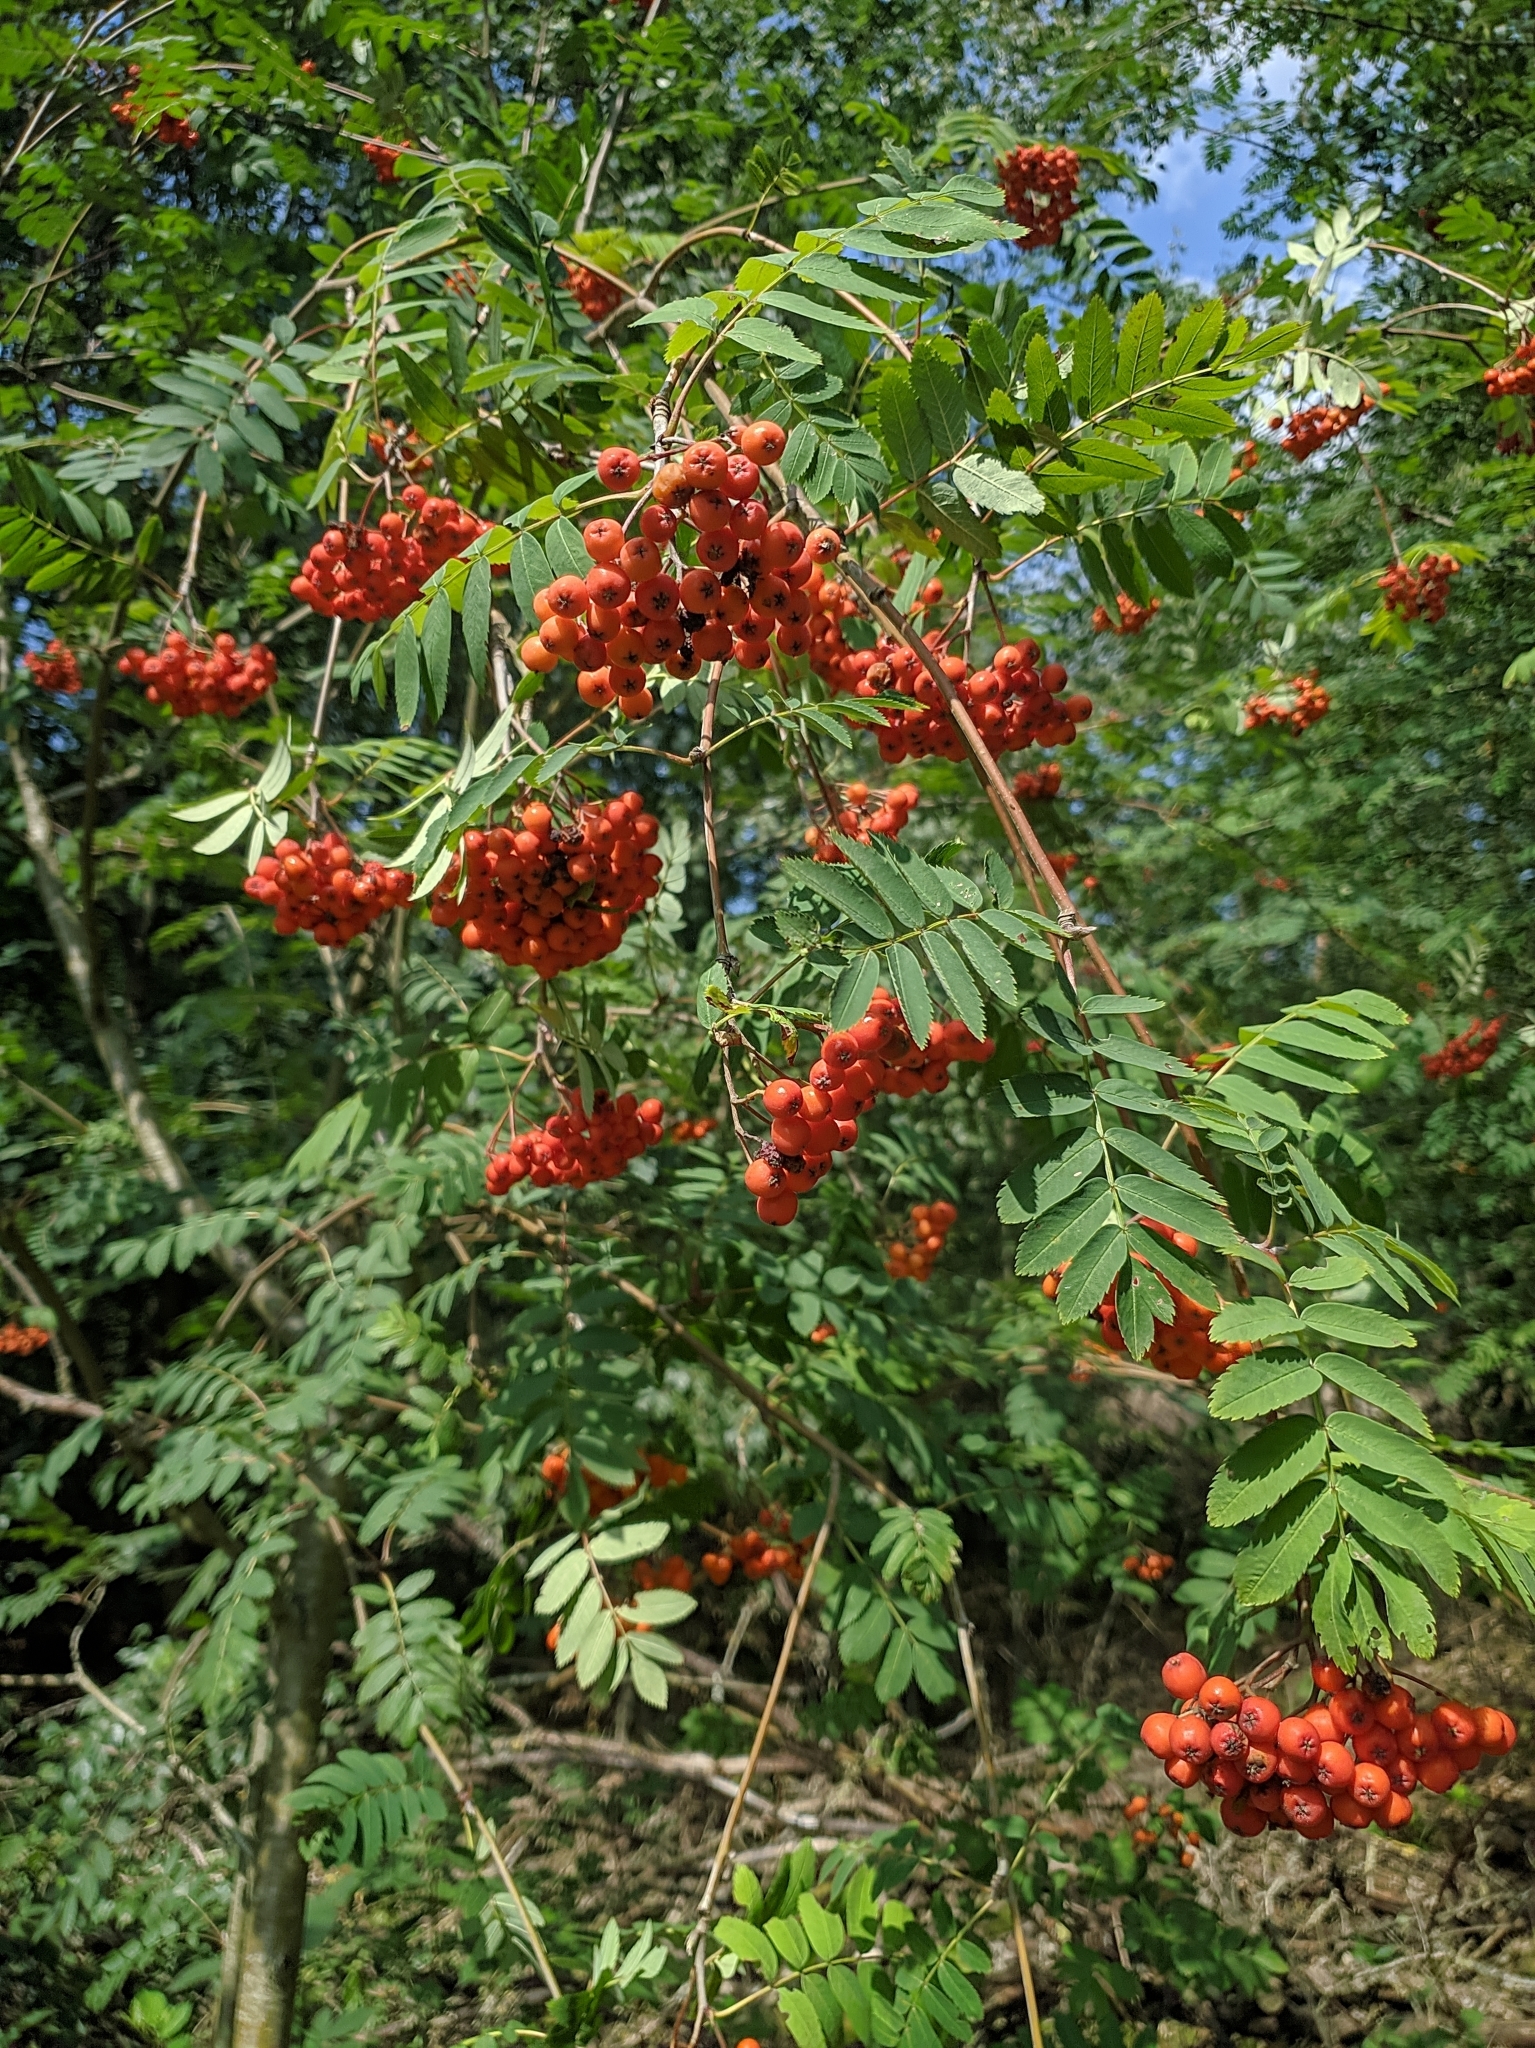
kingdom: Plantae
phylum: Tracheophyta
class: Magnoliopsida
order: Rosales
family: Rosaceae
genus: Sorbus
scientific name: Sorbus aucuparia
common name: Rowan
